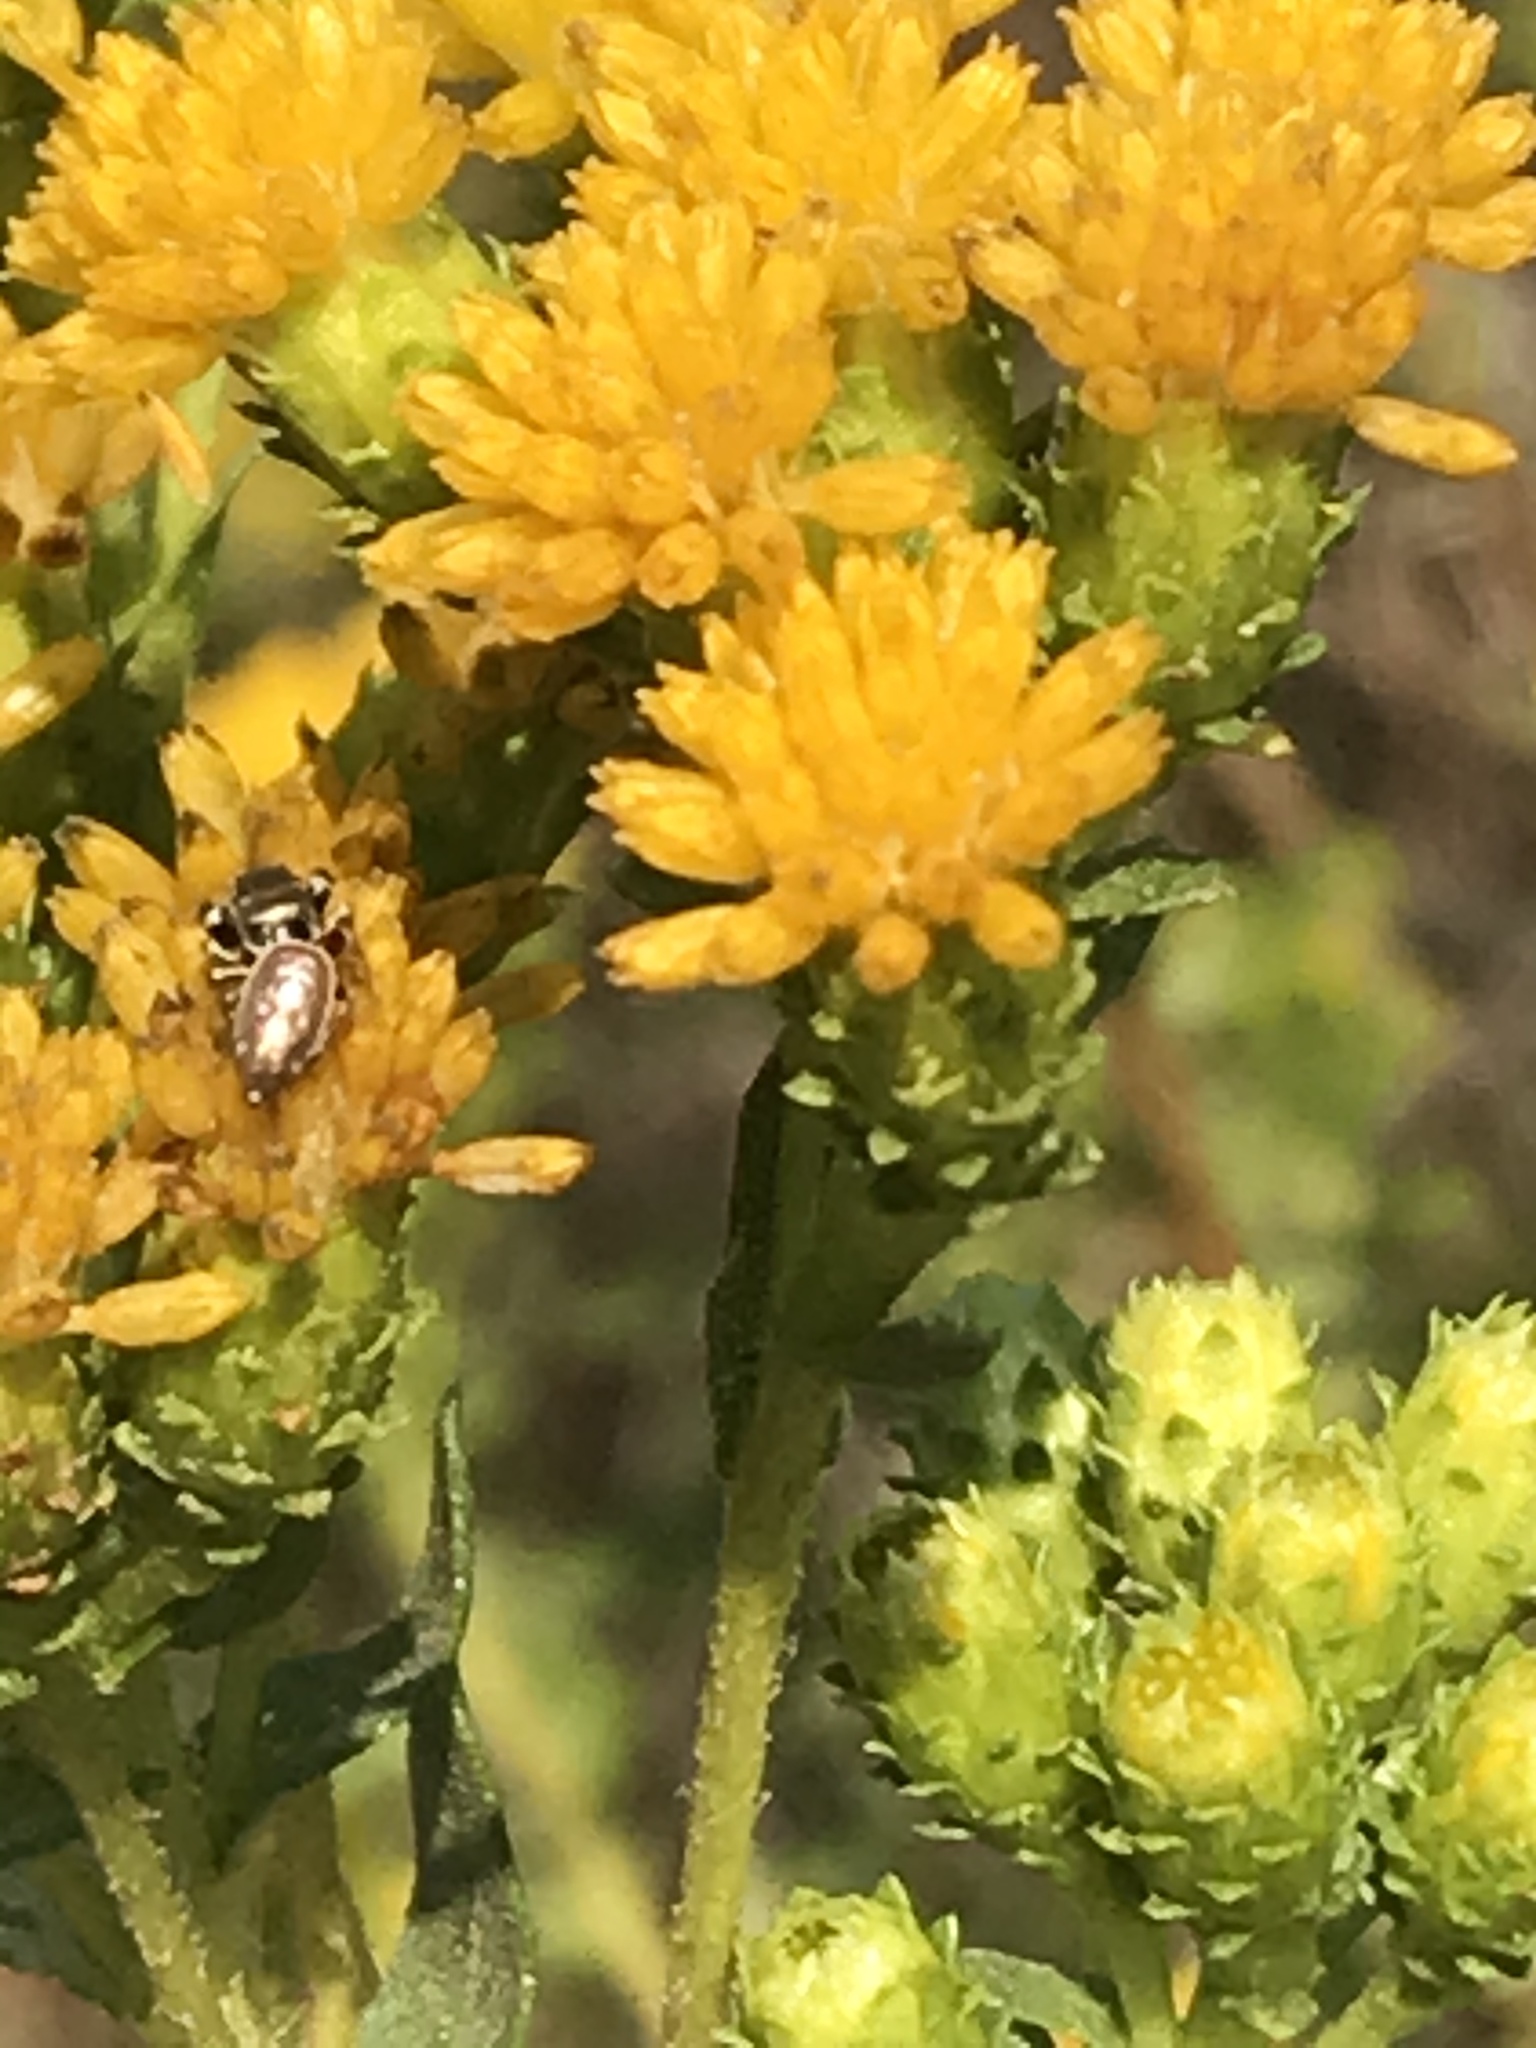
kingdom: Animalia
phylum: Arthropoda
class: Arachnida
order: Araneae
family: Salticidae
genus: Sassacus
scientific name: Sassacus vitis
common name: Jumping spiders
